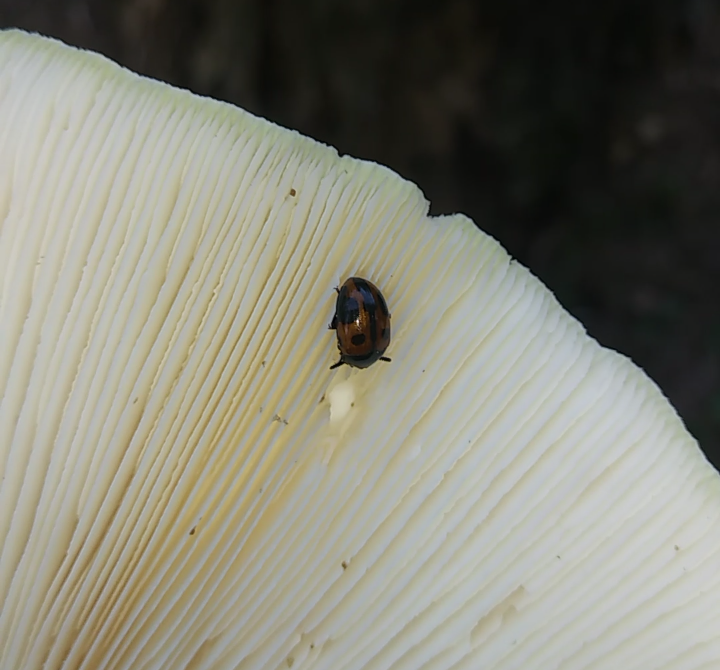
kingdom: Animalia
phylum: Arthropoda
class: Insecta
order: Coleoptera
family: Tenebrionidae
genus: Diaperis
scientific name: Diaperis maculata
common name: Darkling beetle
